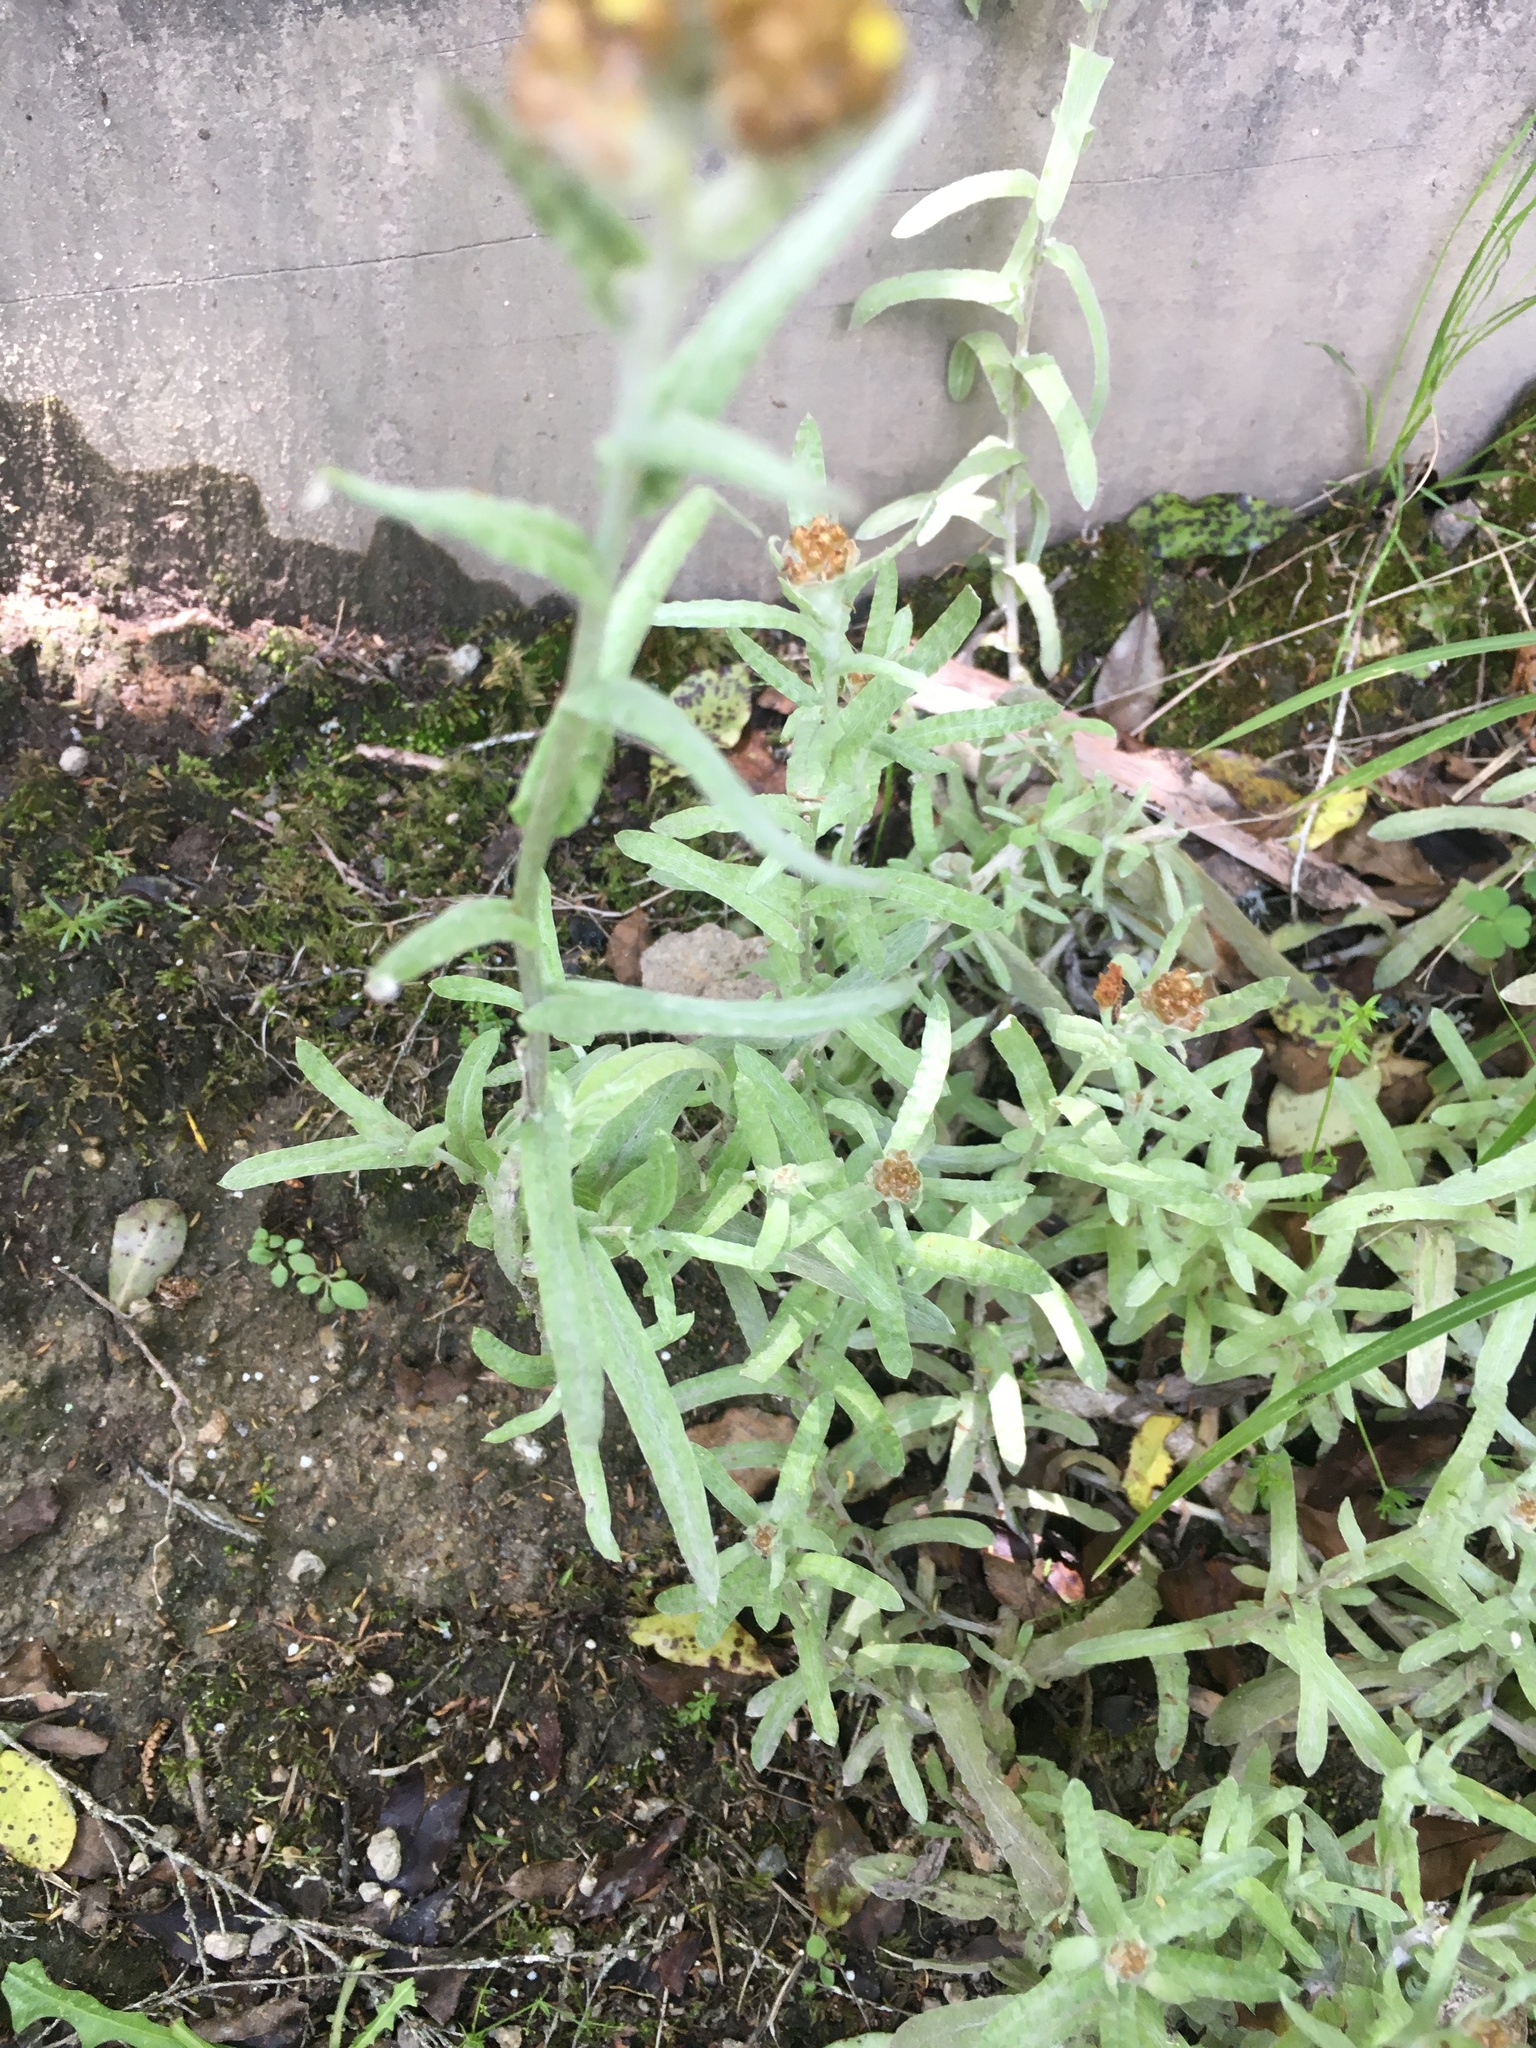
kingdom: Plantae
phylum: Tracheophyta
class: Magnoliopsida
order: Asterales
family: Asteraceae
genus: Helichrysum
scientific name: Helichrysum luteoalbum
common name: Daisy
